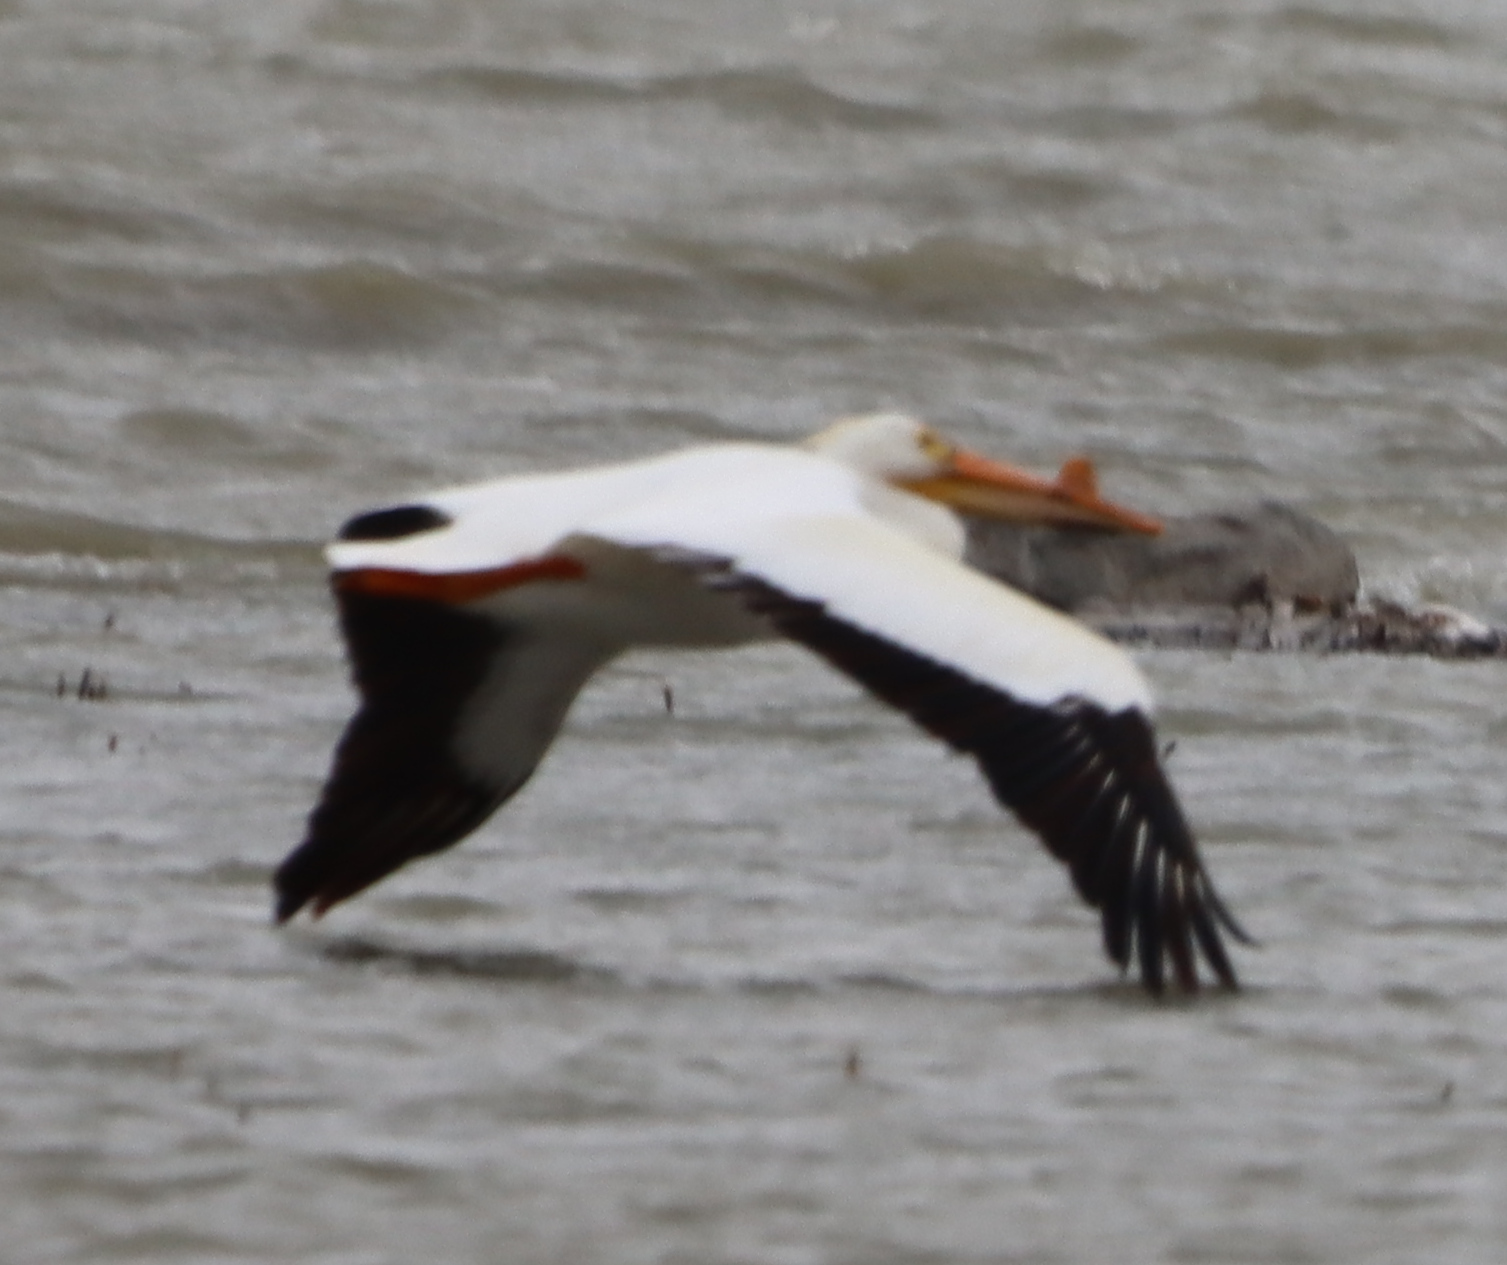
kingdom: Animalia
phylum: Chordata
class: Aves
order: Pelecaniformes
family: Pelecanidae
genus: Pelecanus
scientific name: Pelecanus erythrorhynchos
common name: American white pelican
